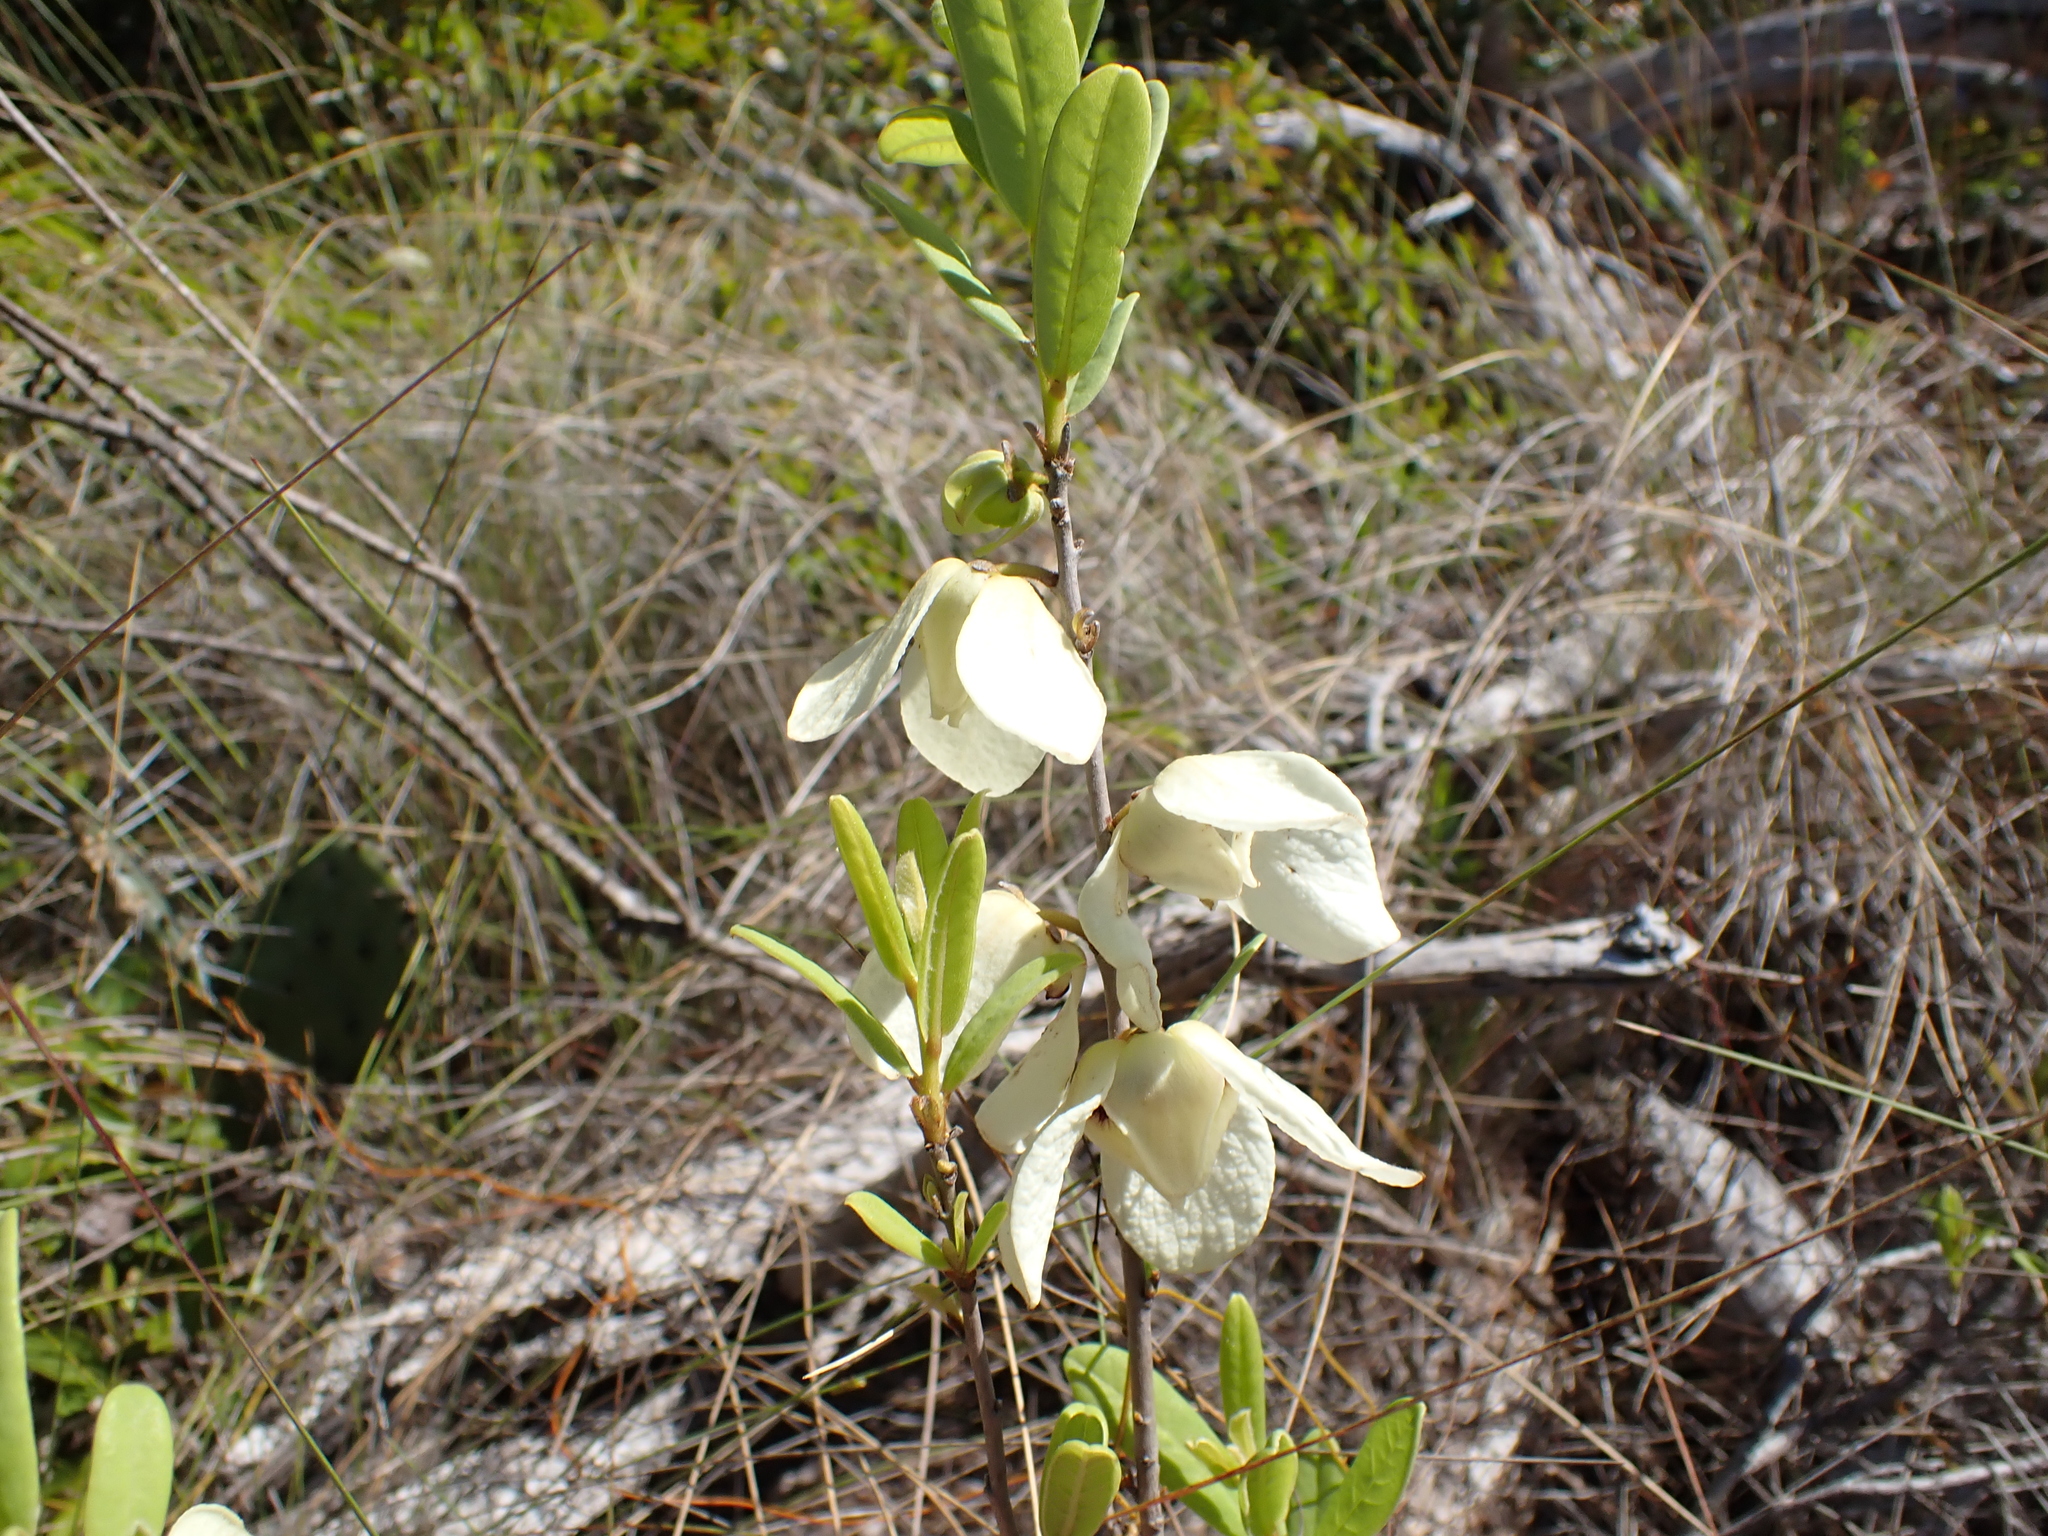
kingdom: Plantae
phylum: Tracheophyta
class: Magnoliopsida
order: Magnoliales
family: Annonaceae
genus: Asimina
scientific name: Asimina reticulata
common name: Flag pawpaw
